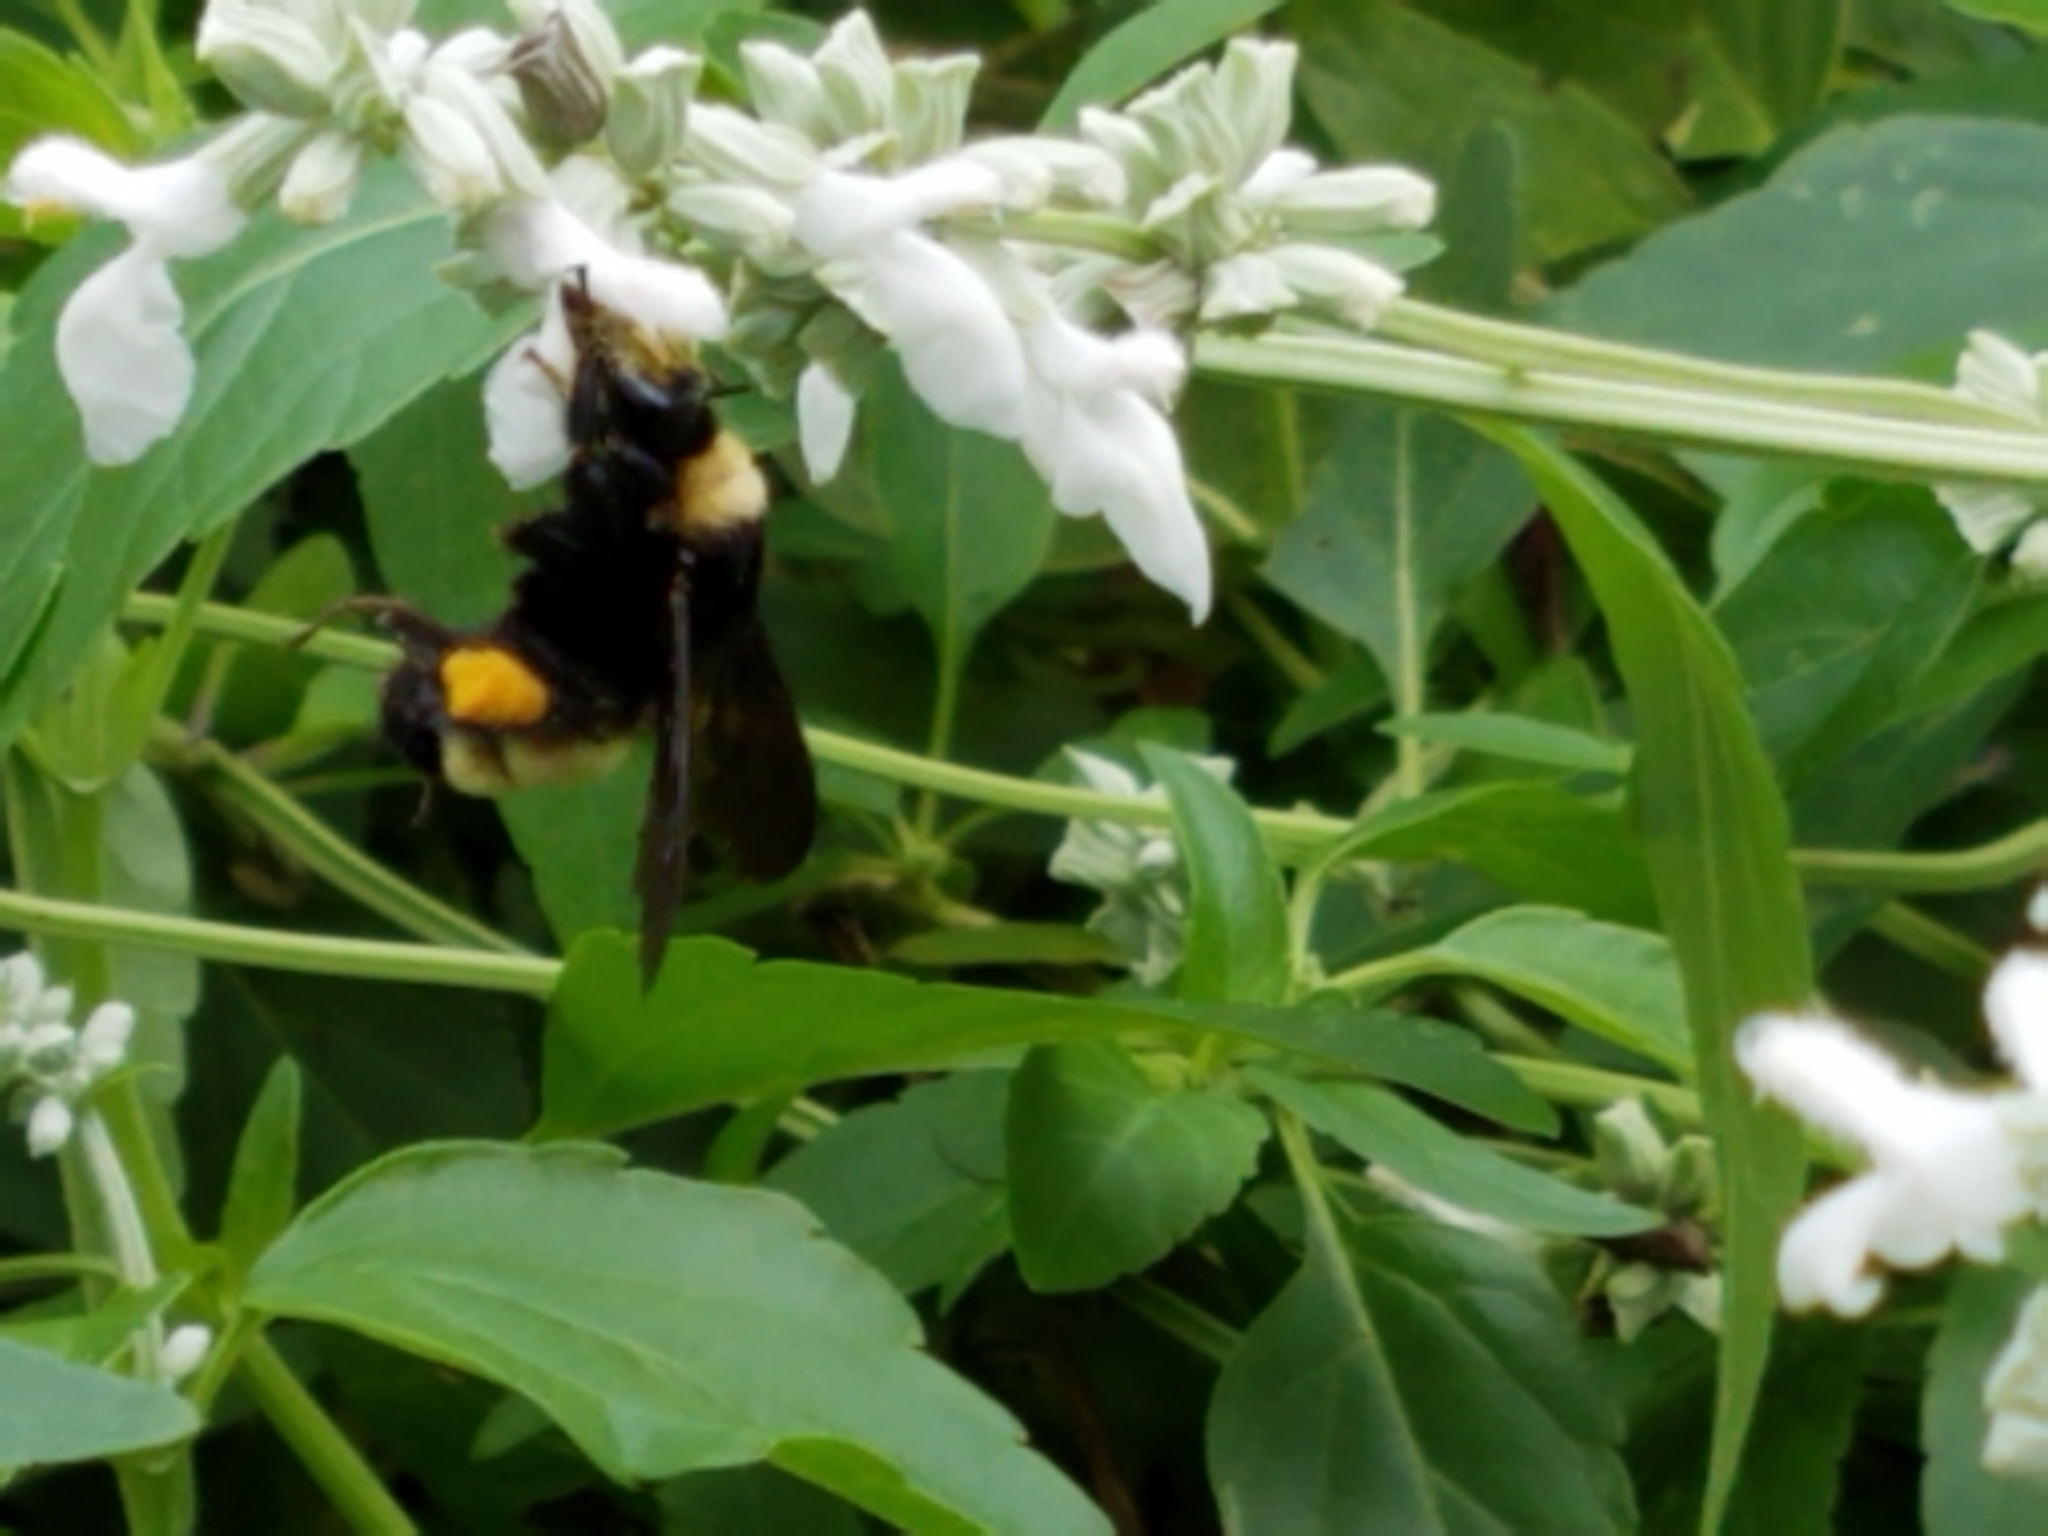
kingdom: Animalia
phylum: Arthropoda
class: Insecta
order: Hymenoptera
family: Apidae
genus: Bombus
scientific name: Bombus pensylvanicus
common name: Bumble bee
